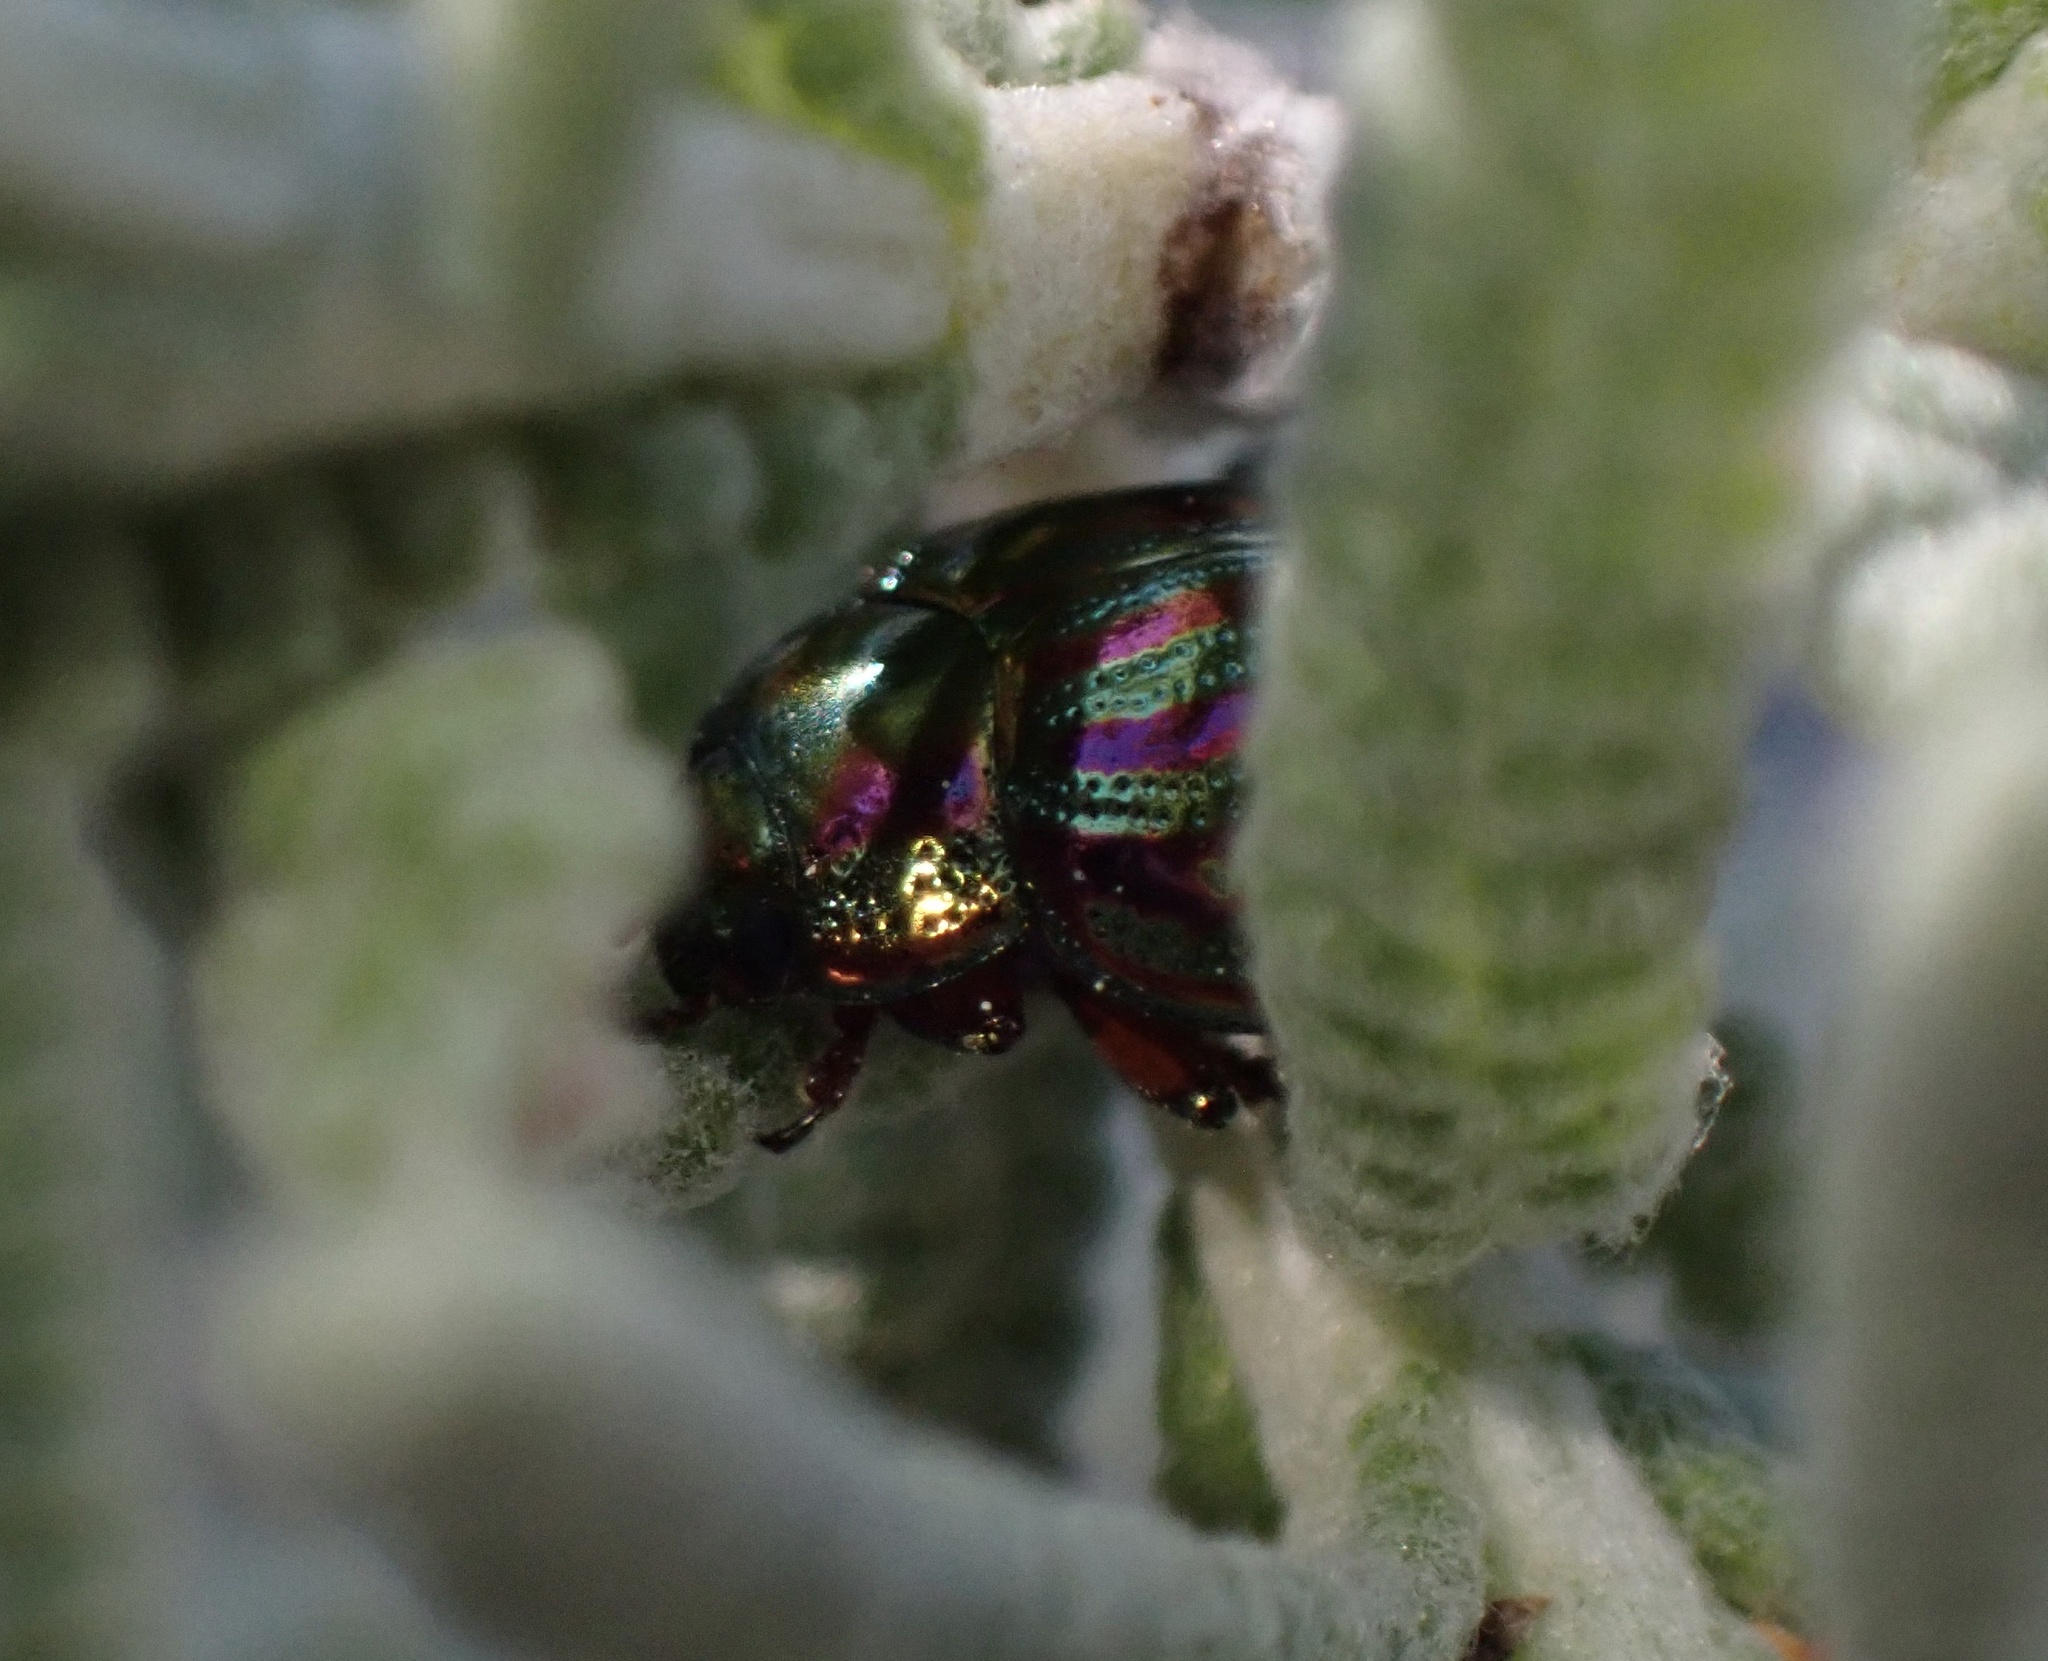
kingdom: Animalia
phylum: Arthropoda
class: Insecta
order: Coleoptera
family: Chrysomelidae
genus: Chrysolina
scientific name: Chrysolina americana
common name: Rosemary beetle
